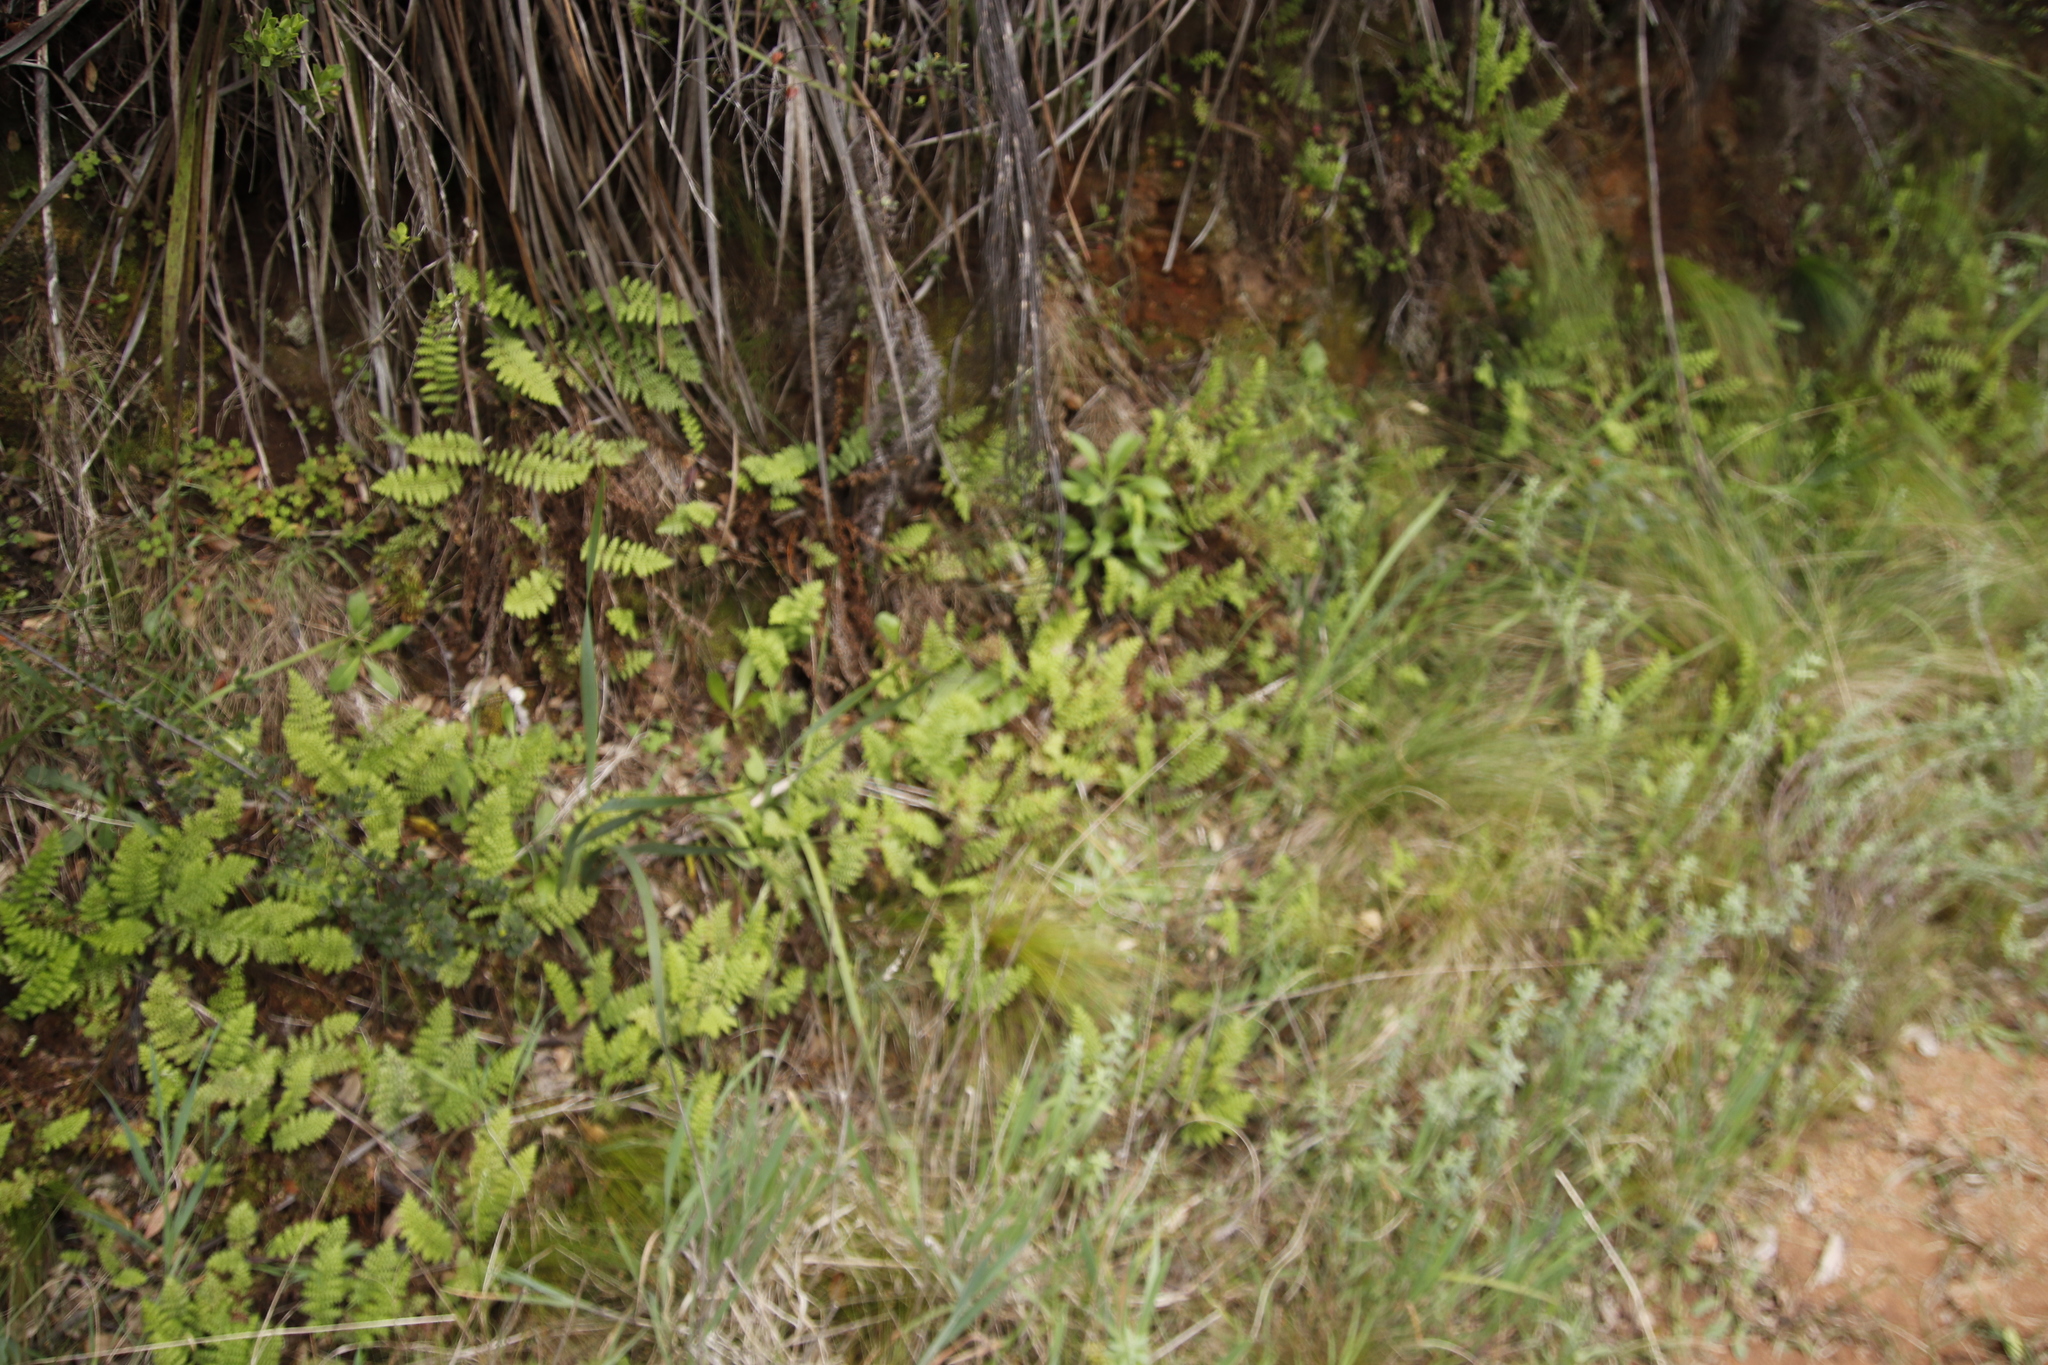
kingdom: Plantae
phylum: Tracheophyta
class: Polypodiopsida
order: Schizaeales
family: Anemiaceae
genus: Anemia
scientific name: Anemia caffrorum
